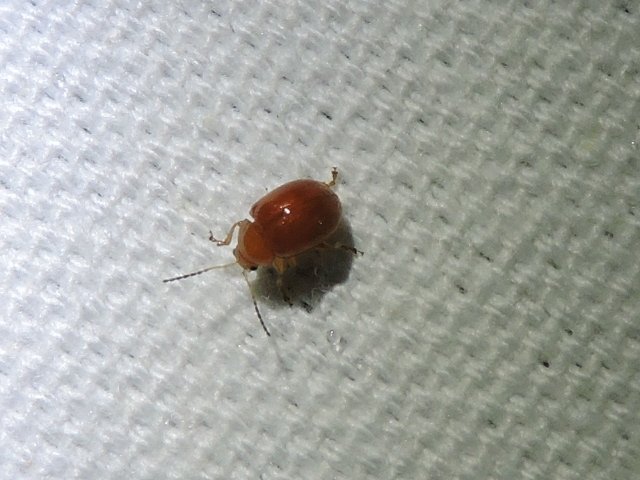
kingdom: Animalia
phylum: Arthropoda
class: Insecta
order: Coleoptera
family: Chrysomelidae
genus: Pseudorthygia
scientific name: Pseudorthygia nigritarsis
